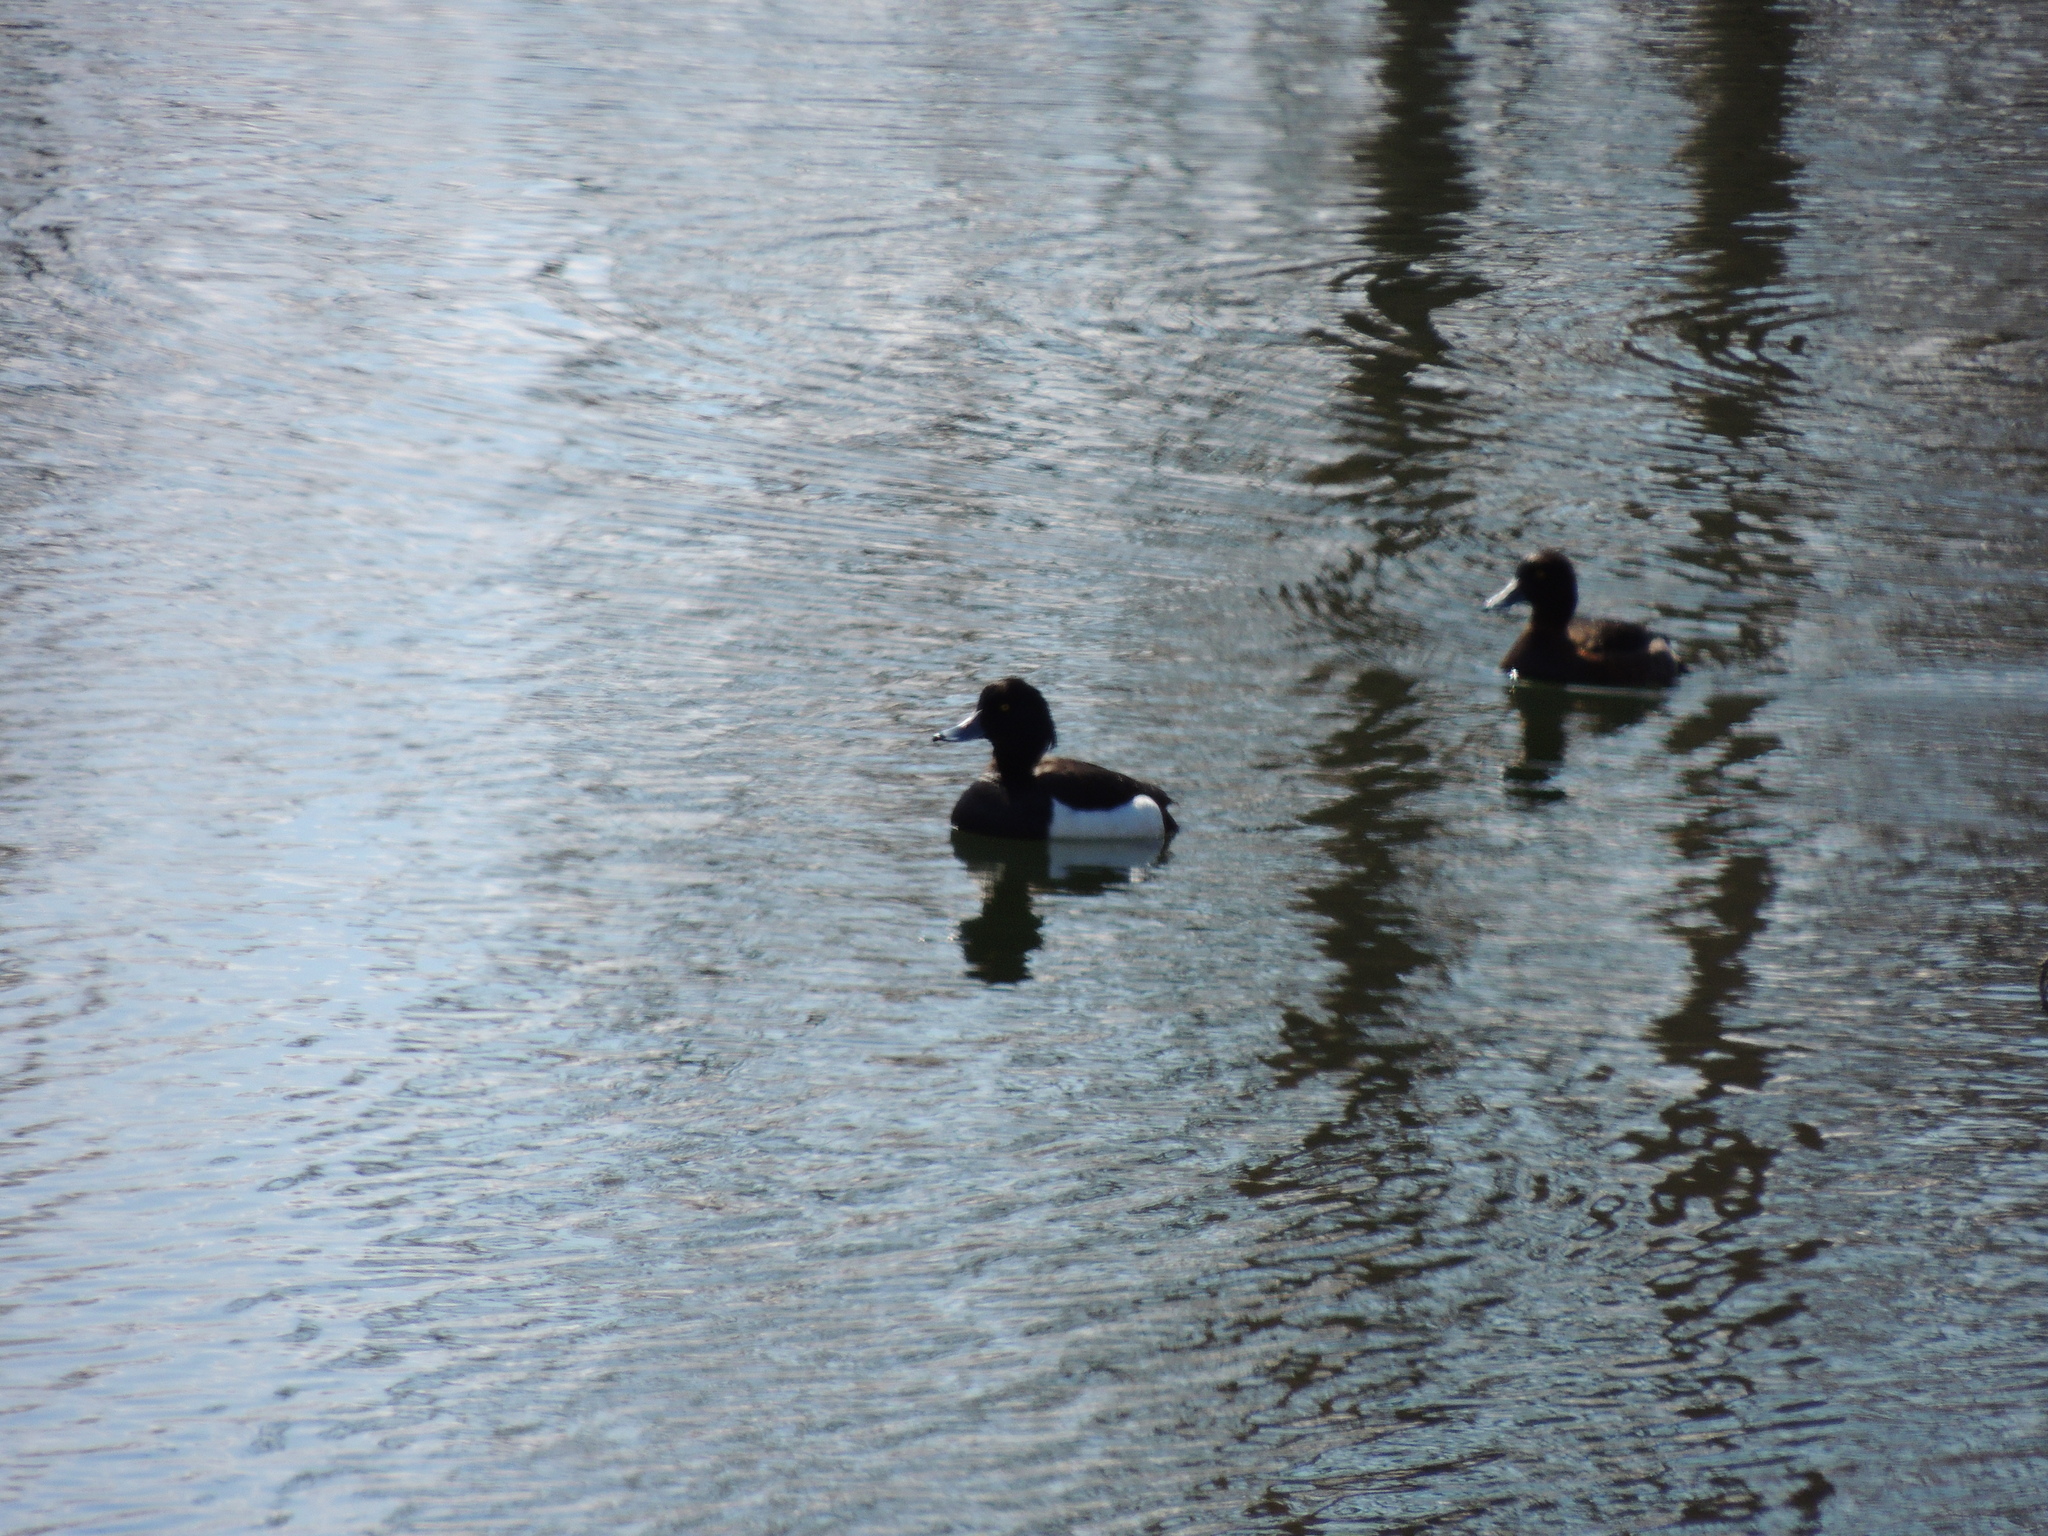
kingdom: Animalia
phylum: Chordata
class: Aves
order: Anseriformes
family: Anatidae
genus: Aythya
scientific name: Aythya fuligula
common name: Tufted duck
